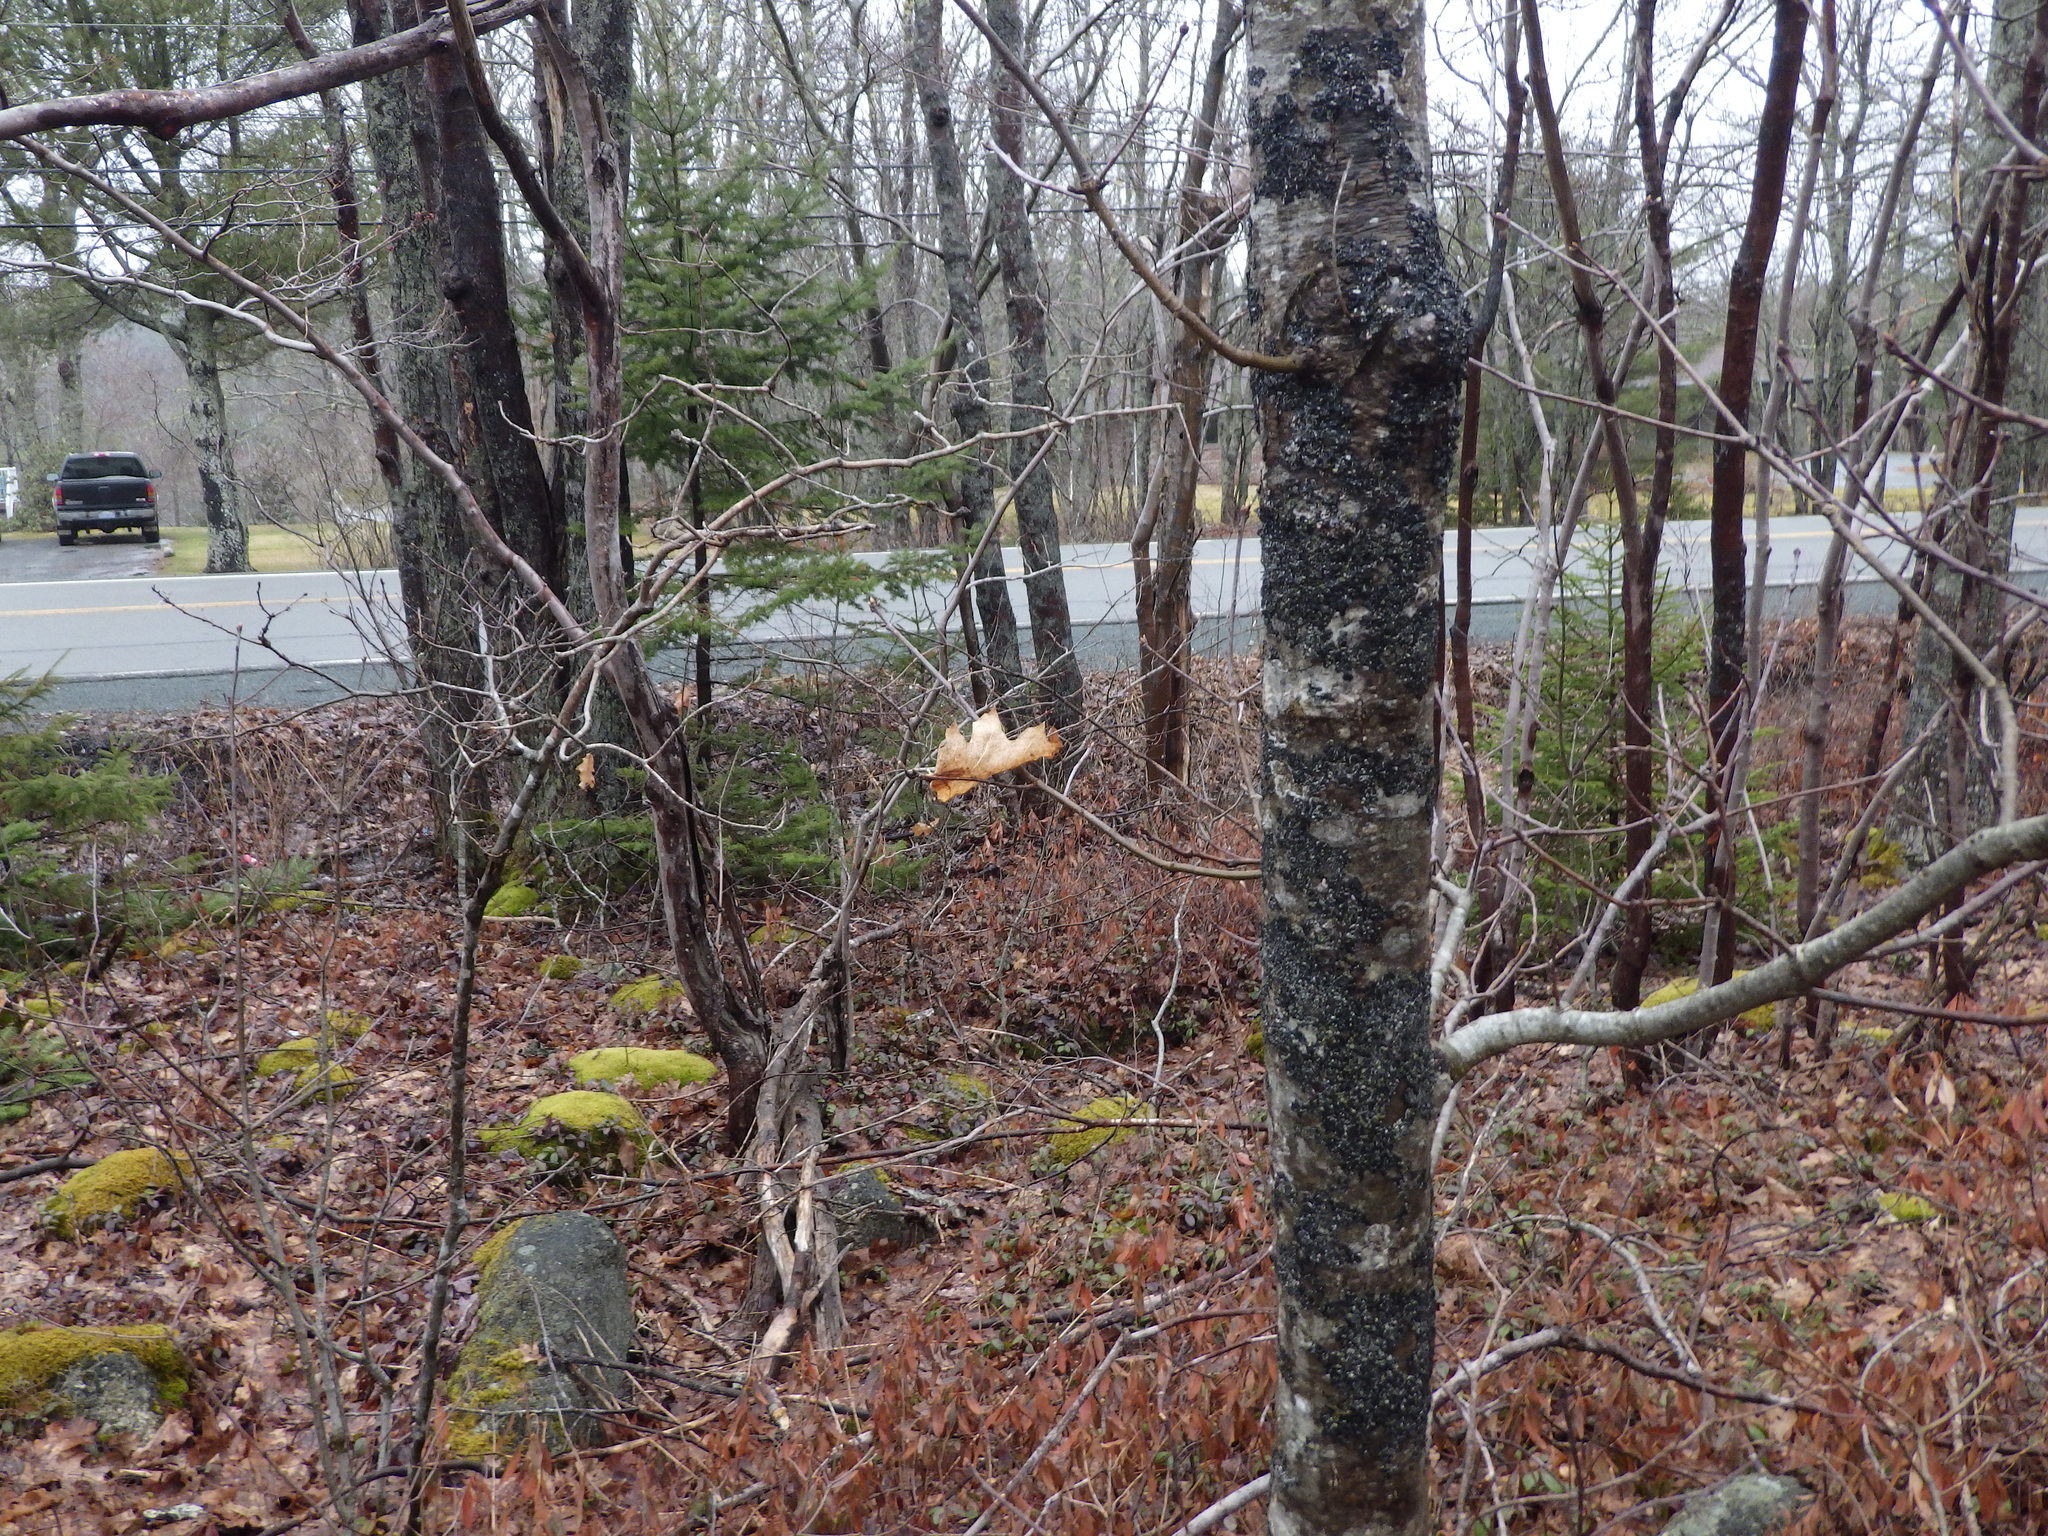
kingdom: Plantae
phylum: Tracheophyta
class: Magnoliopsida
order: Fagales
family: Fagaceae
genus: Quercus
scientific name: Quercus rubra
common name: Red oak
